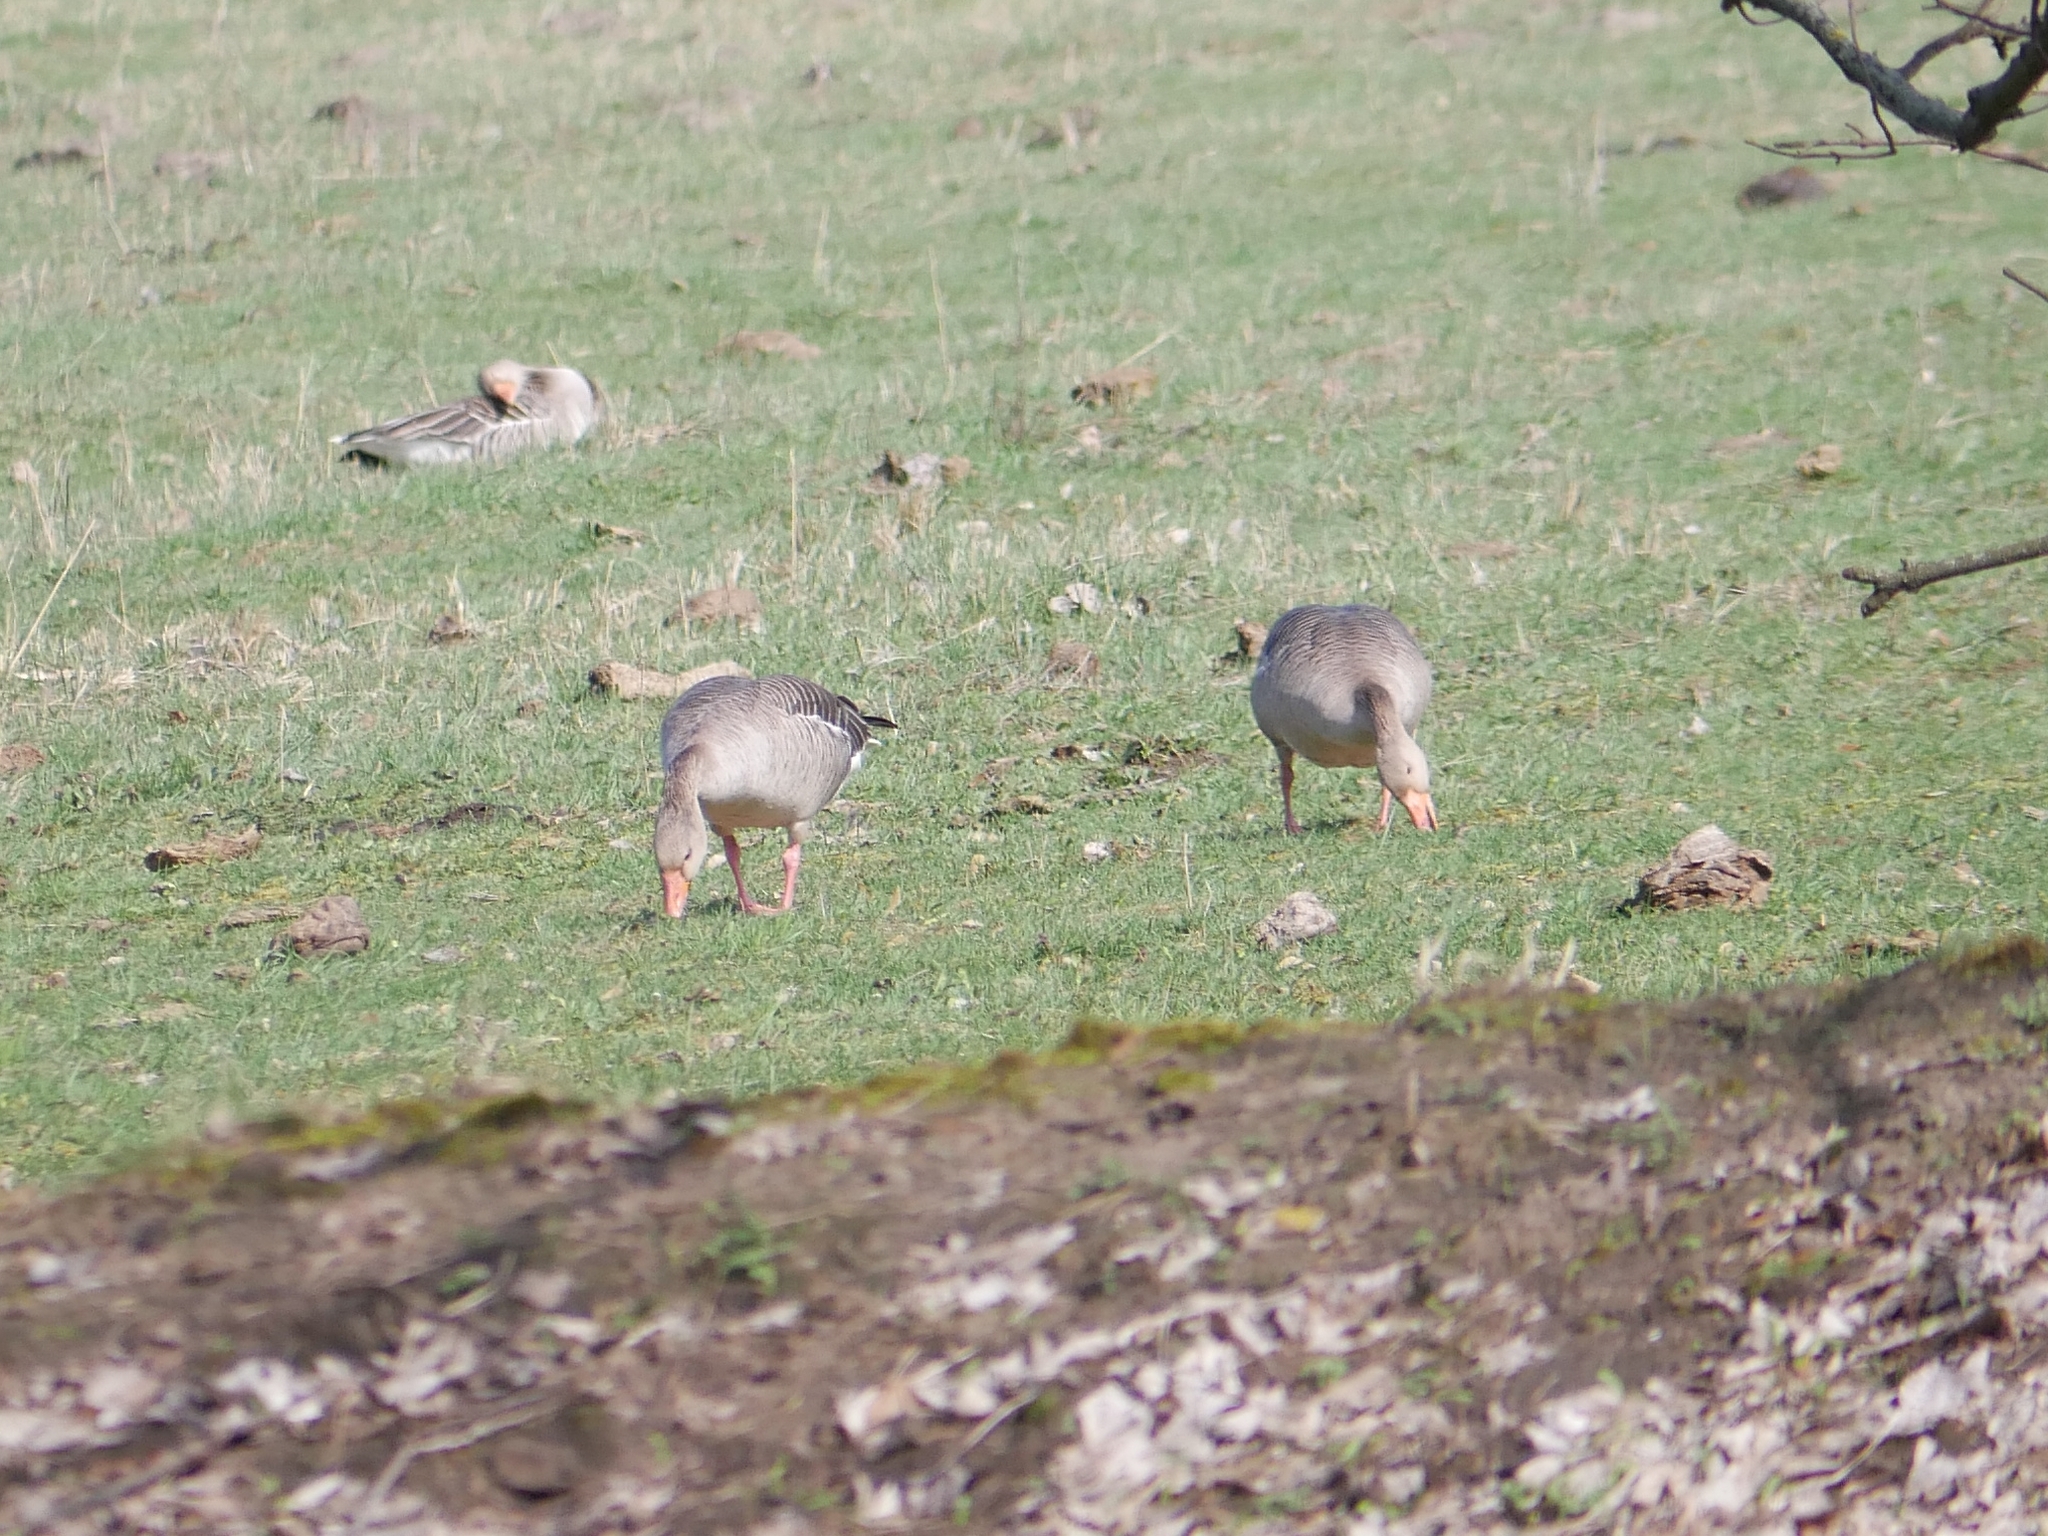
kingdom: Animalia
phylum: Chordata
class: Aves
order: Anseriformes
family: Anatidae
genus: Anser
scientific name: Anser anser
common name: Greylag goose
